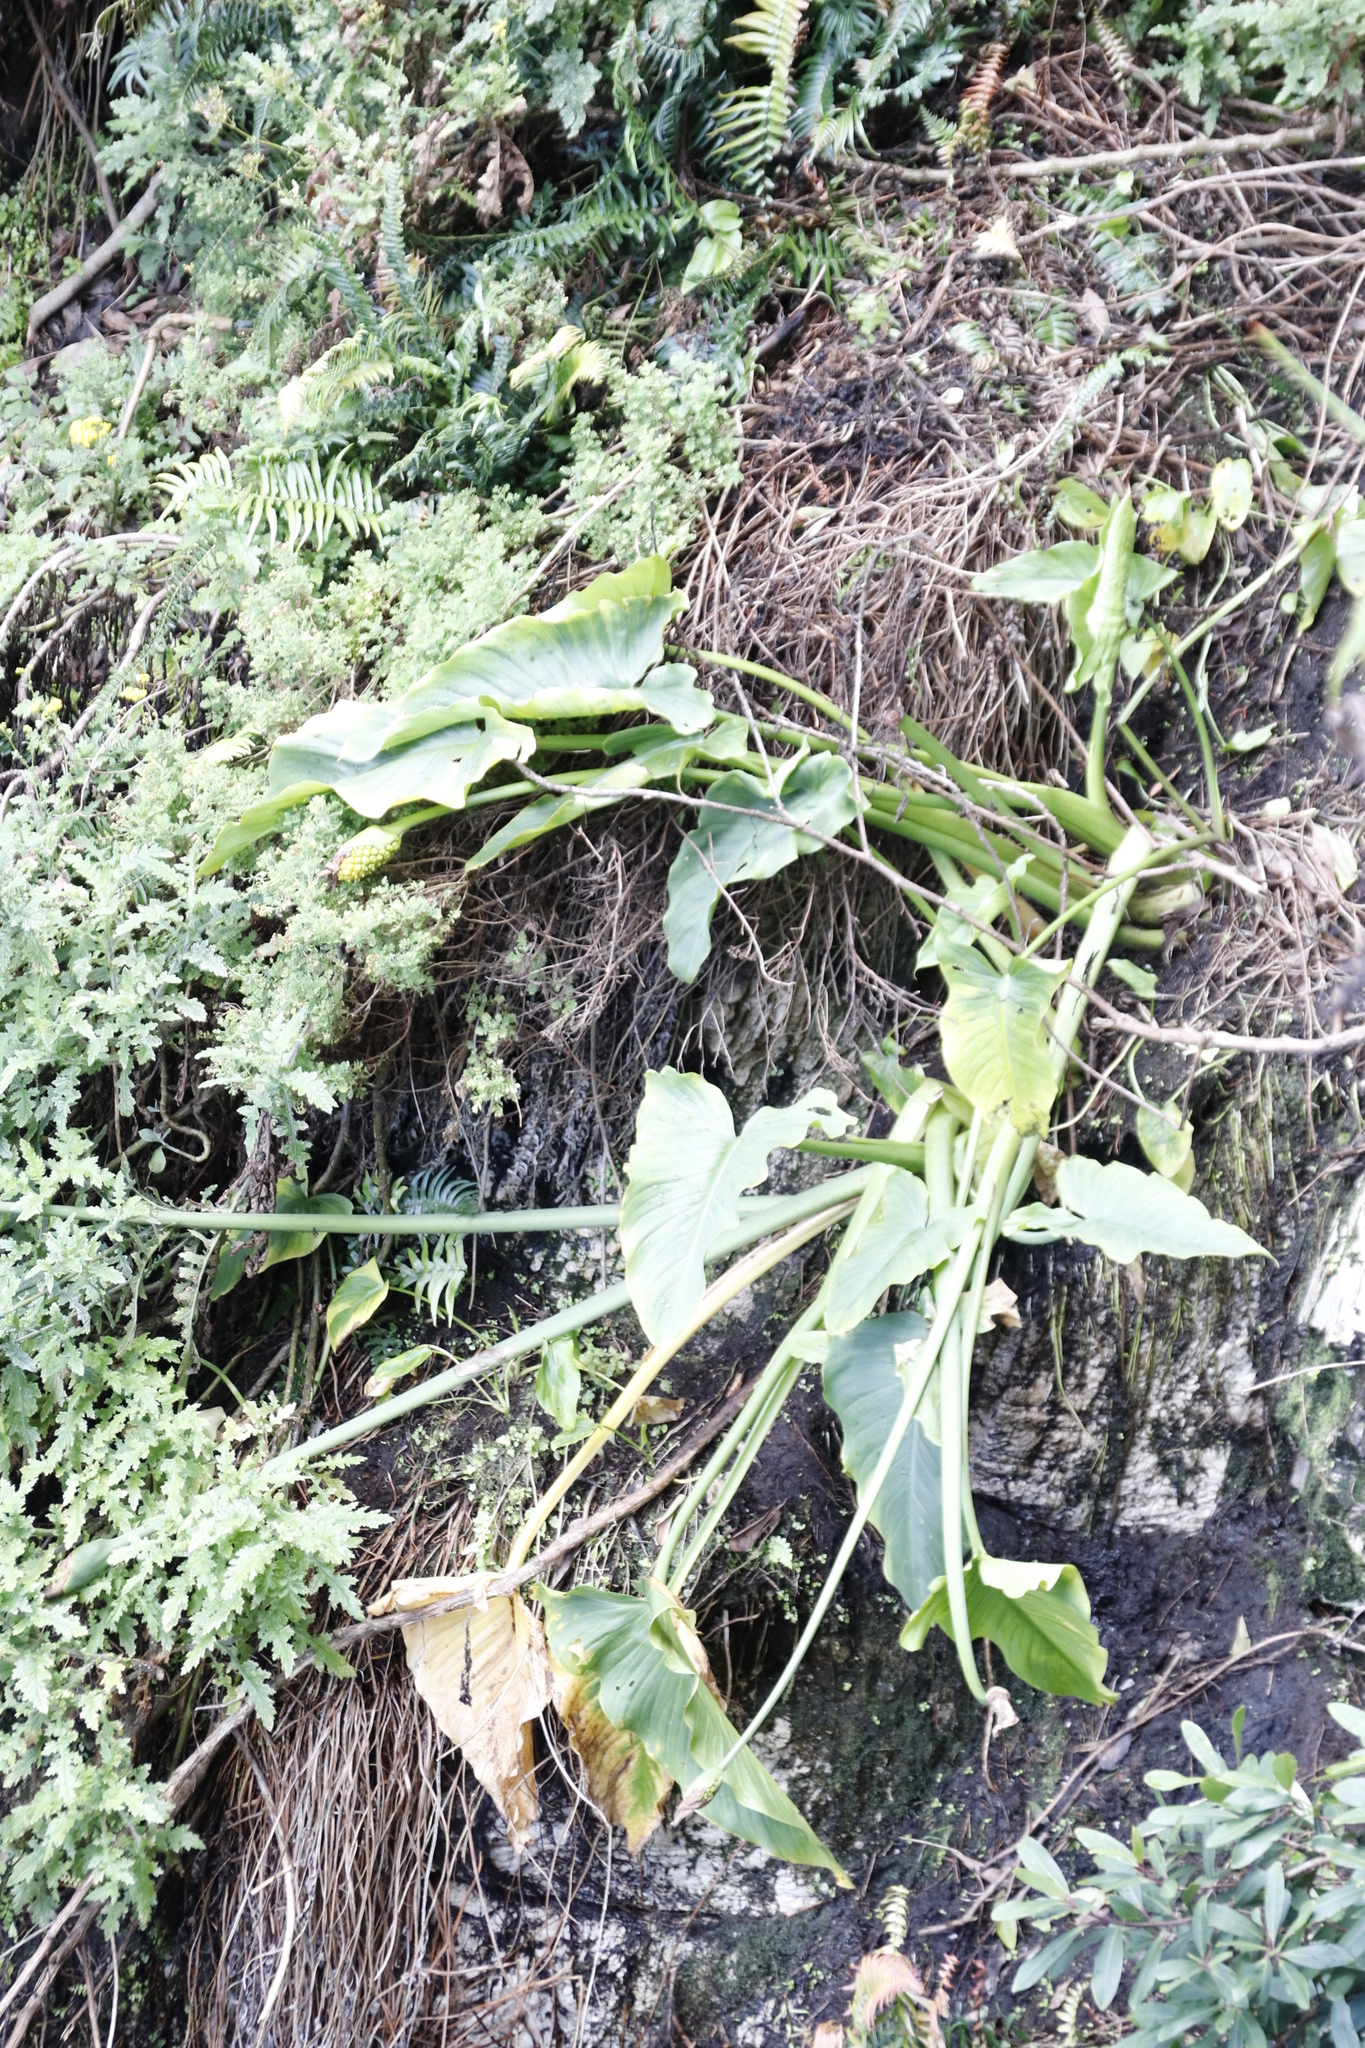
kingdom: Plantae
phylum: Tracheophyta
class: Liliopsida
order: Alismatales
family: Araceae
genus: Zantedeschia
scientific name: Zantedeschia aethiopica
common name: Altar-lily
